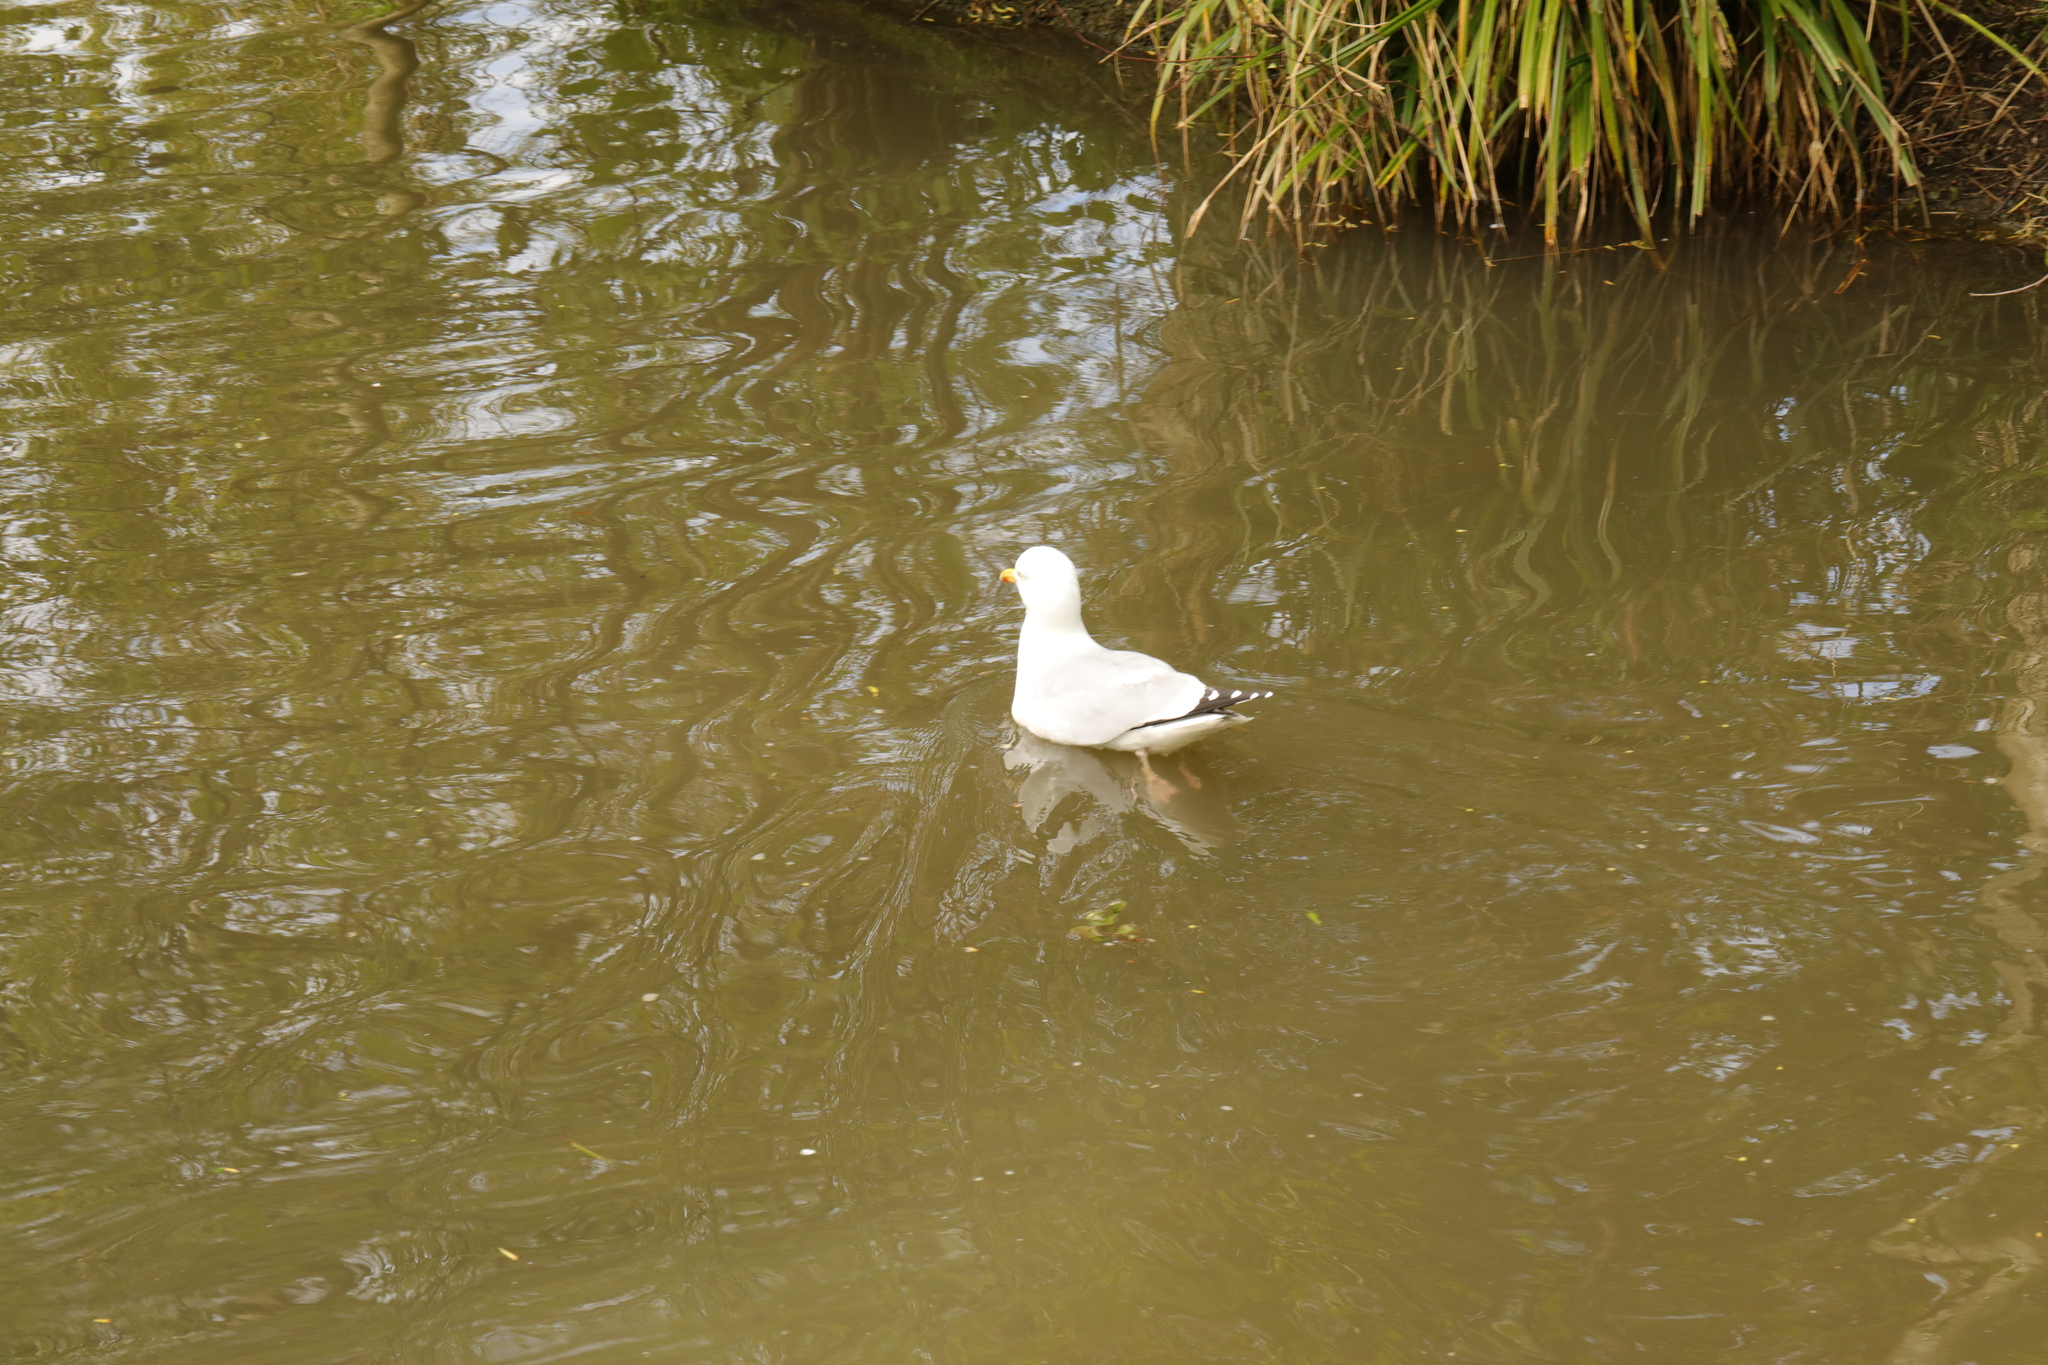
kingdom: Animalia
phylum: Chordata
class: Aves
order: Charadriiformes
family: Laridae
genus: Larus
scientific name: Larus argentatus
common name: Herring gull
